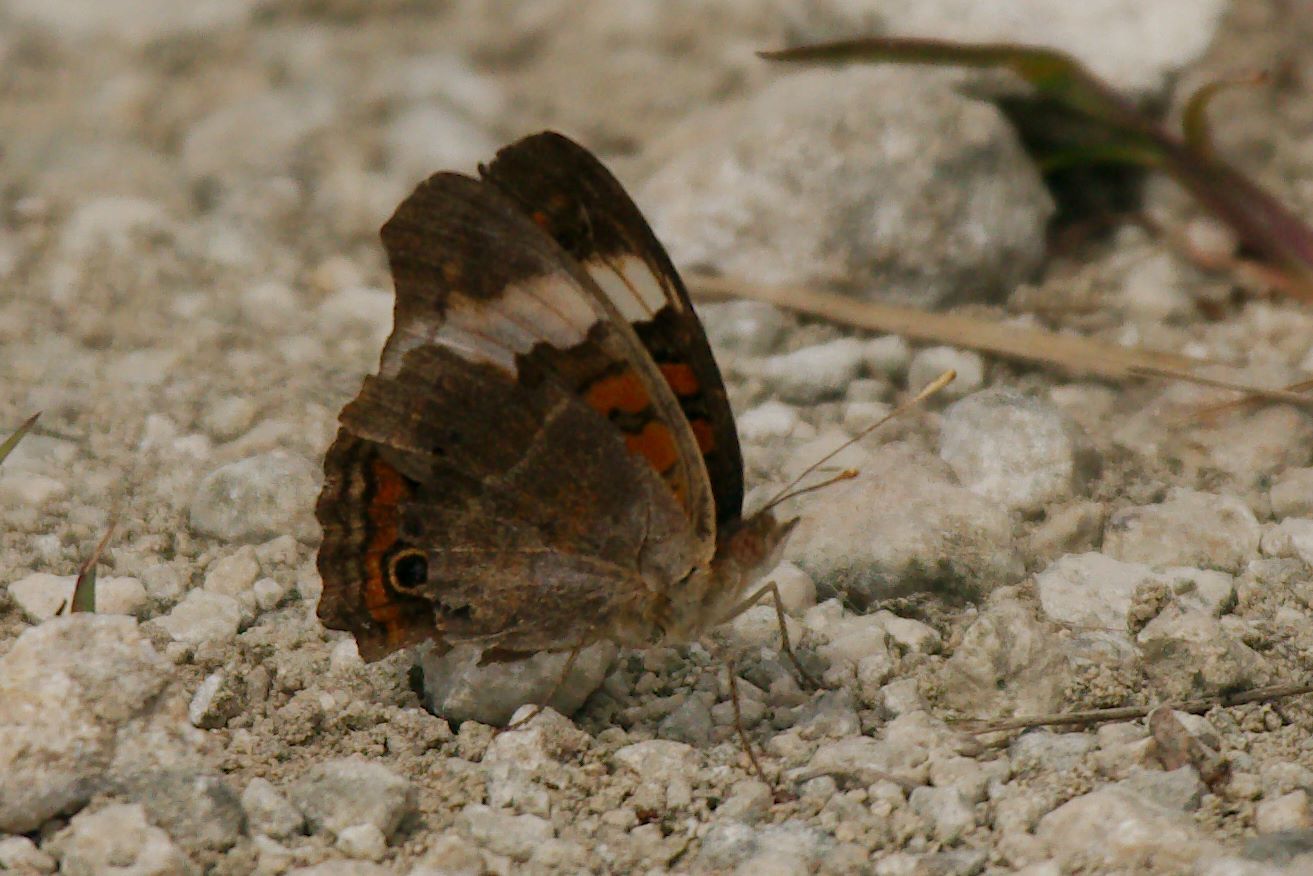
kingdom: Animalia
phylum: Arthropoda
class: Insecta
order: Lepidoptera
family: Nymphalidae
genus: Junonia
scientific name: Junonia coenia
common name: Common buckeye
